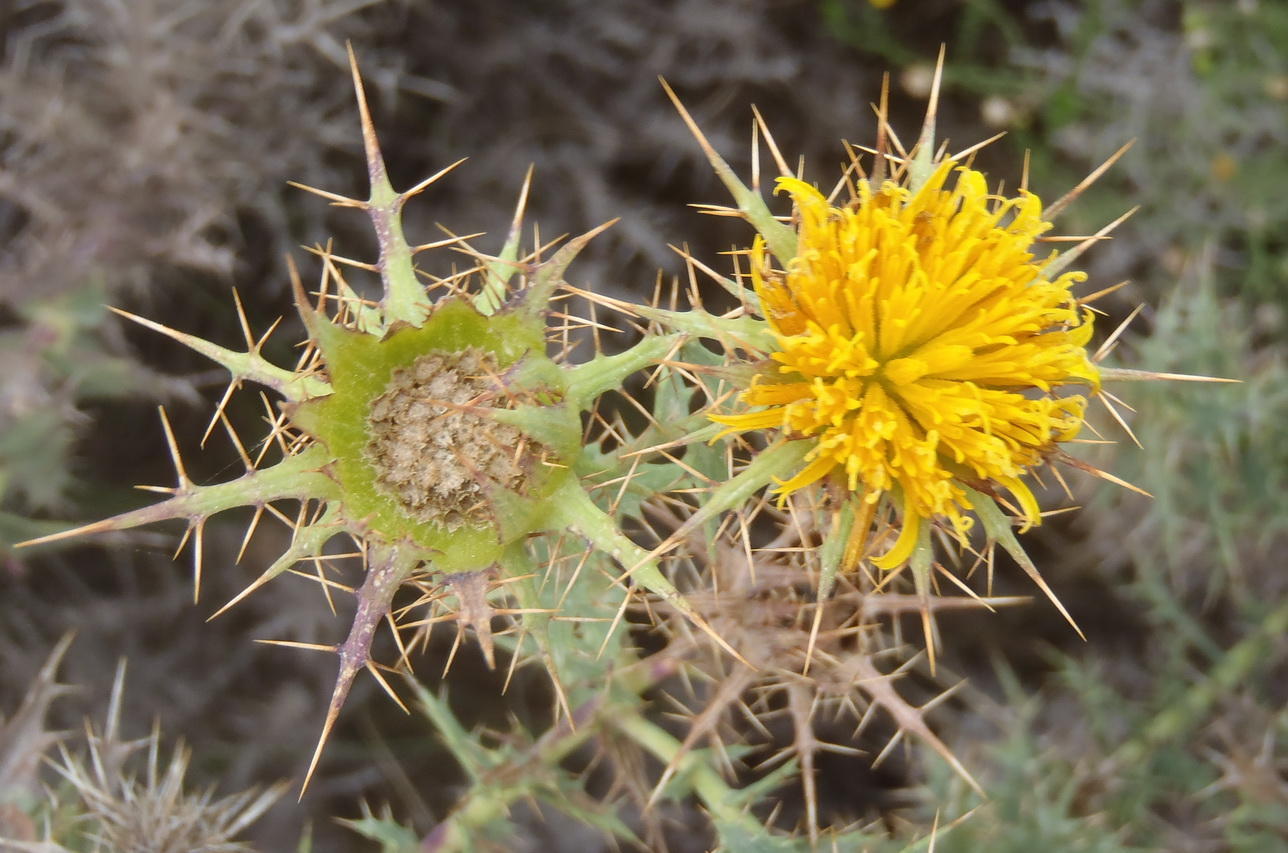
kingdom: Plantae
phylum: Tracheophyta
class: Magnoliopsida
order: Asterales
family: Asteraceae
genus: Berkheya
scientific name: Berkheya cruciata
